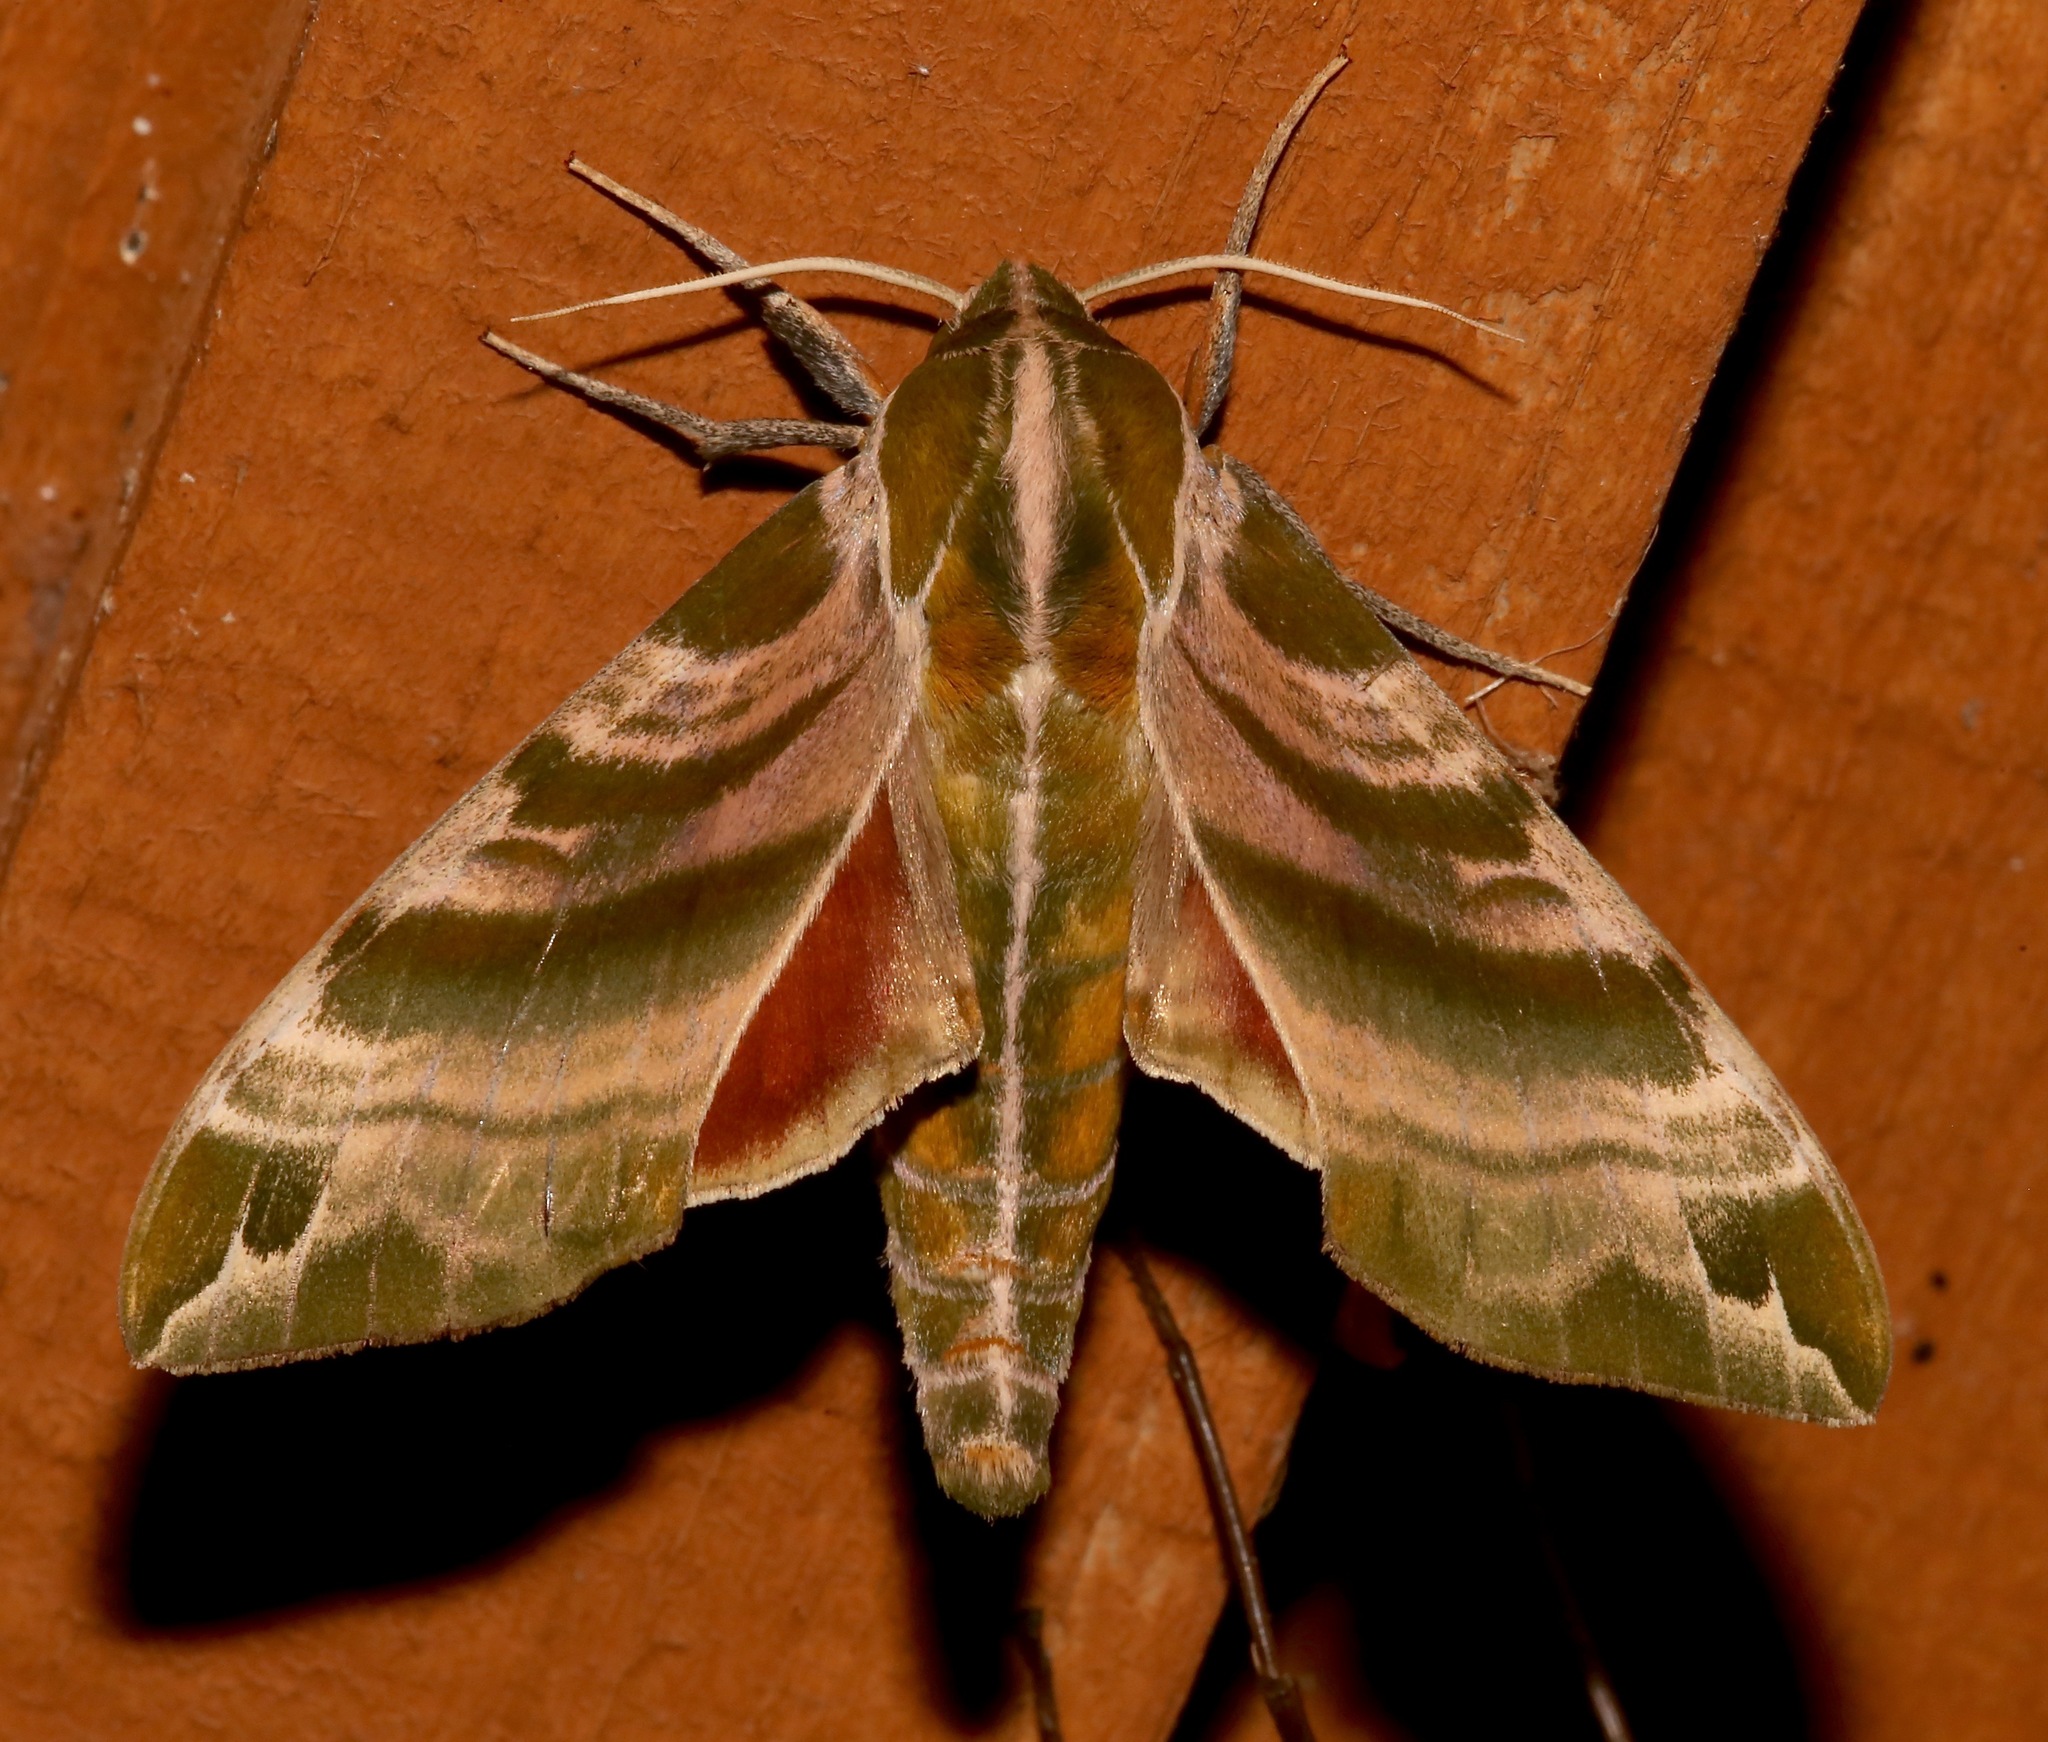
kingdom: Animalia
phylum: Arthropoda
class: Insecta
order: Lepidoptera
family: Sphingidae
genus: Darapsa
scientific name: Darapsa versicolor
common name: Hydrangea sphinx
